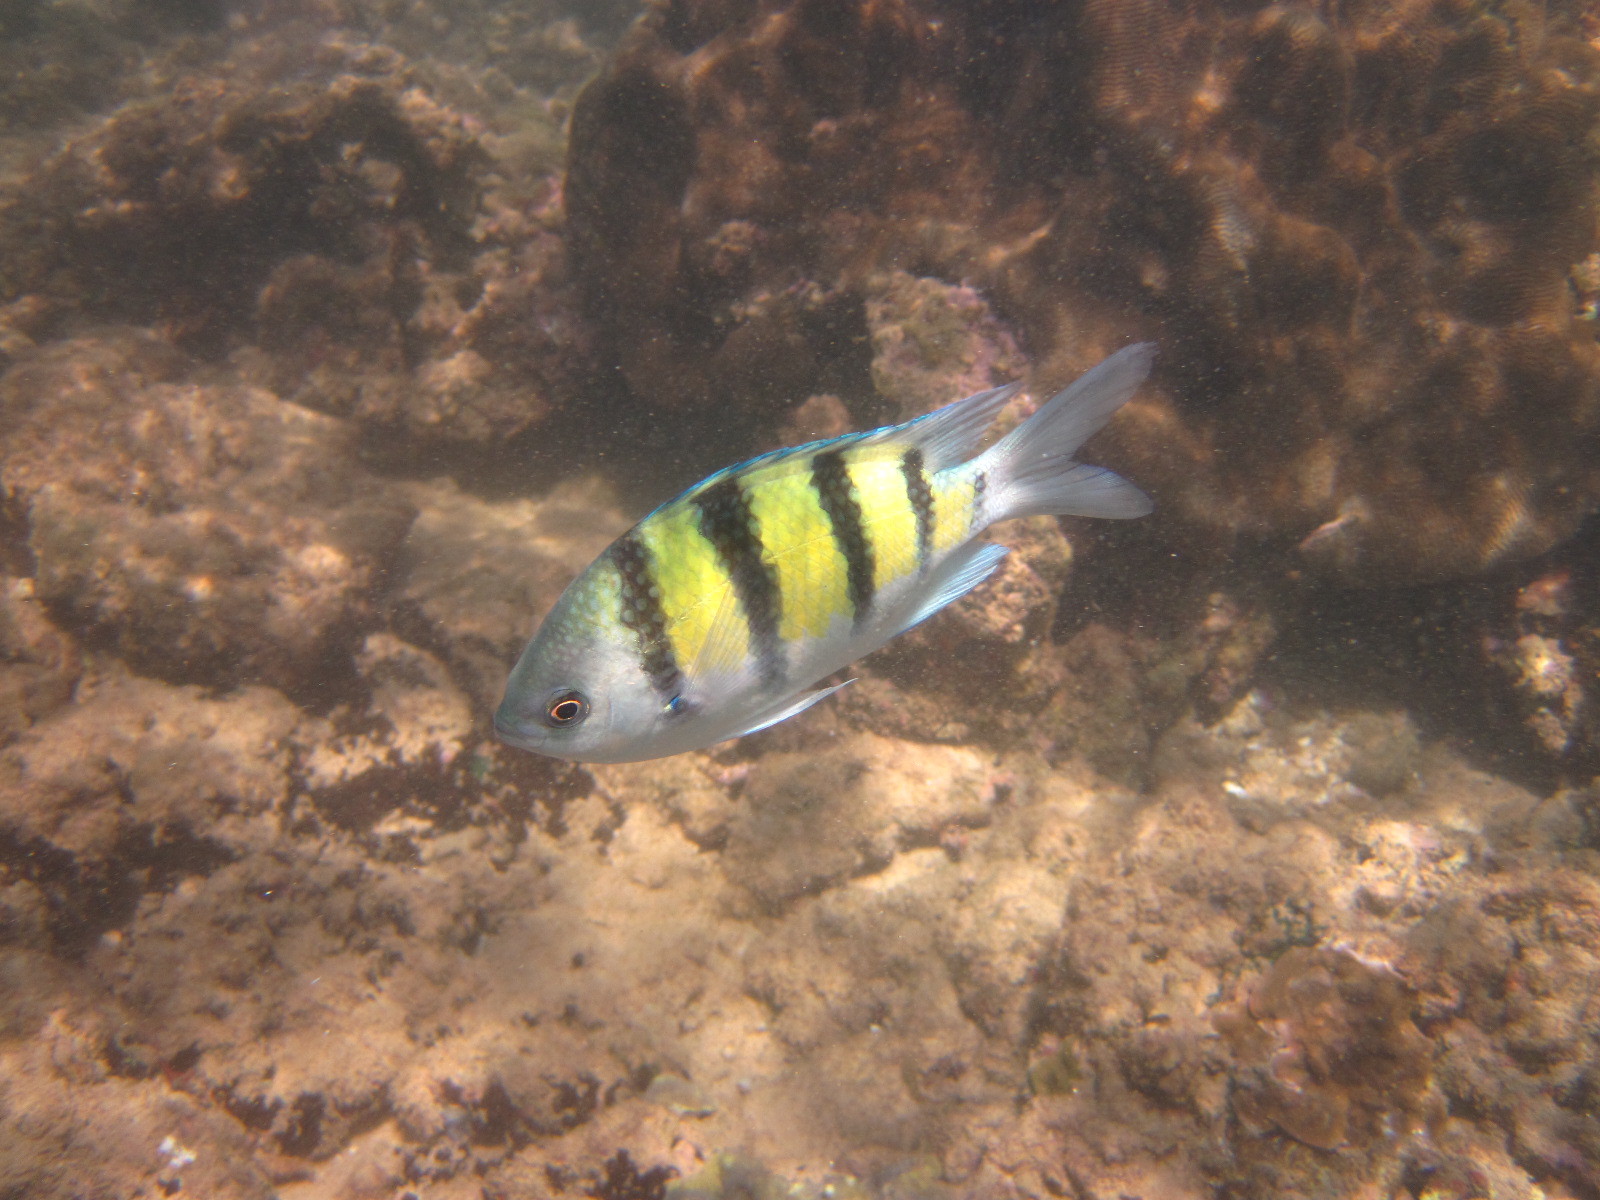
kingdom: Animalia
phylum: Chordata
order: Perciformes
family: Pomacentridae
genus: Abudefduf
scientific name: Abudefduf vaigiensis
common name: Indo-pacific sergeant
